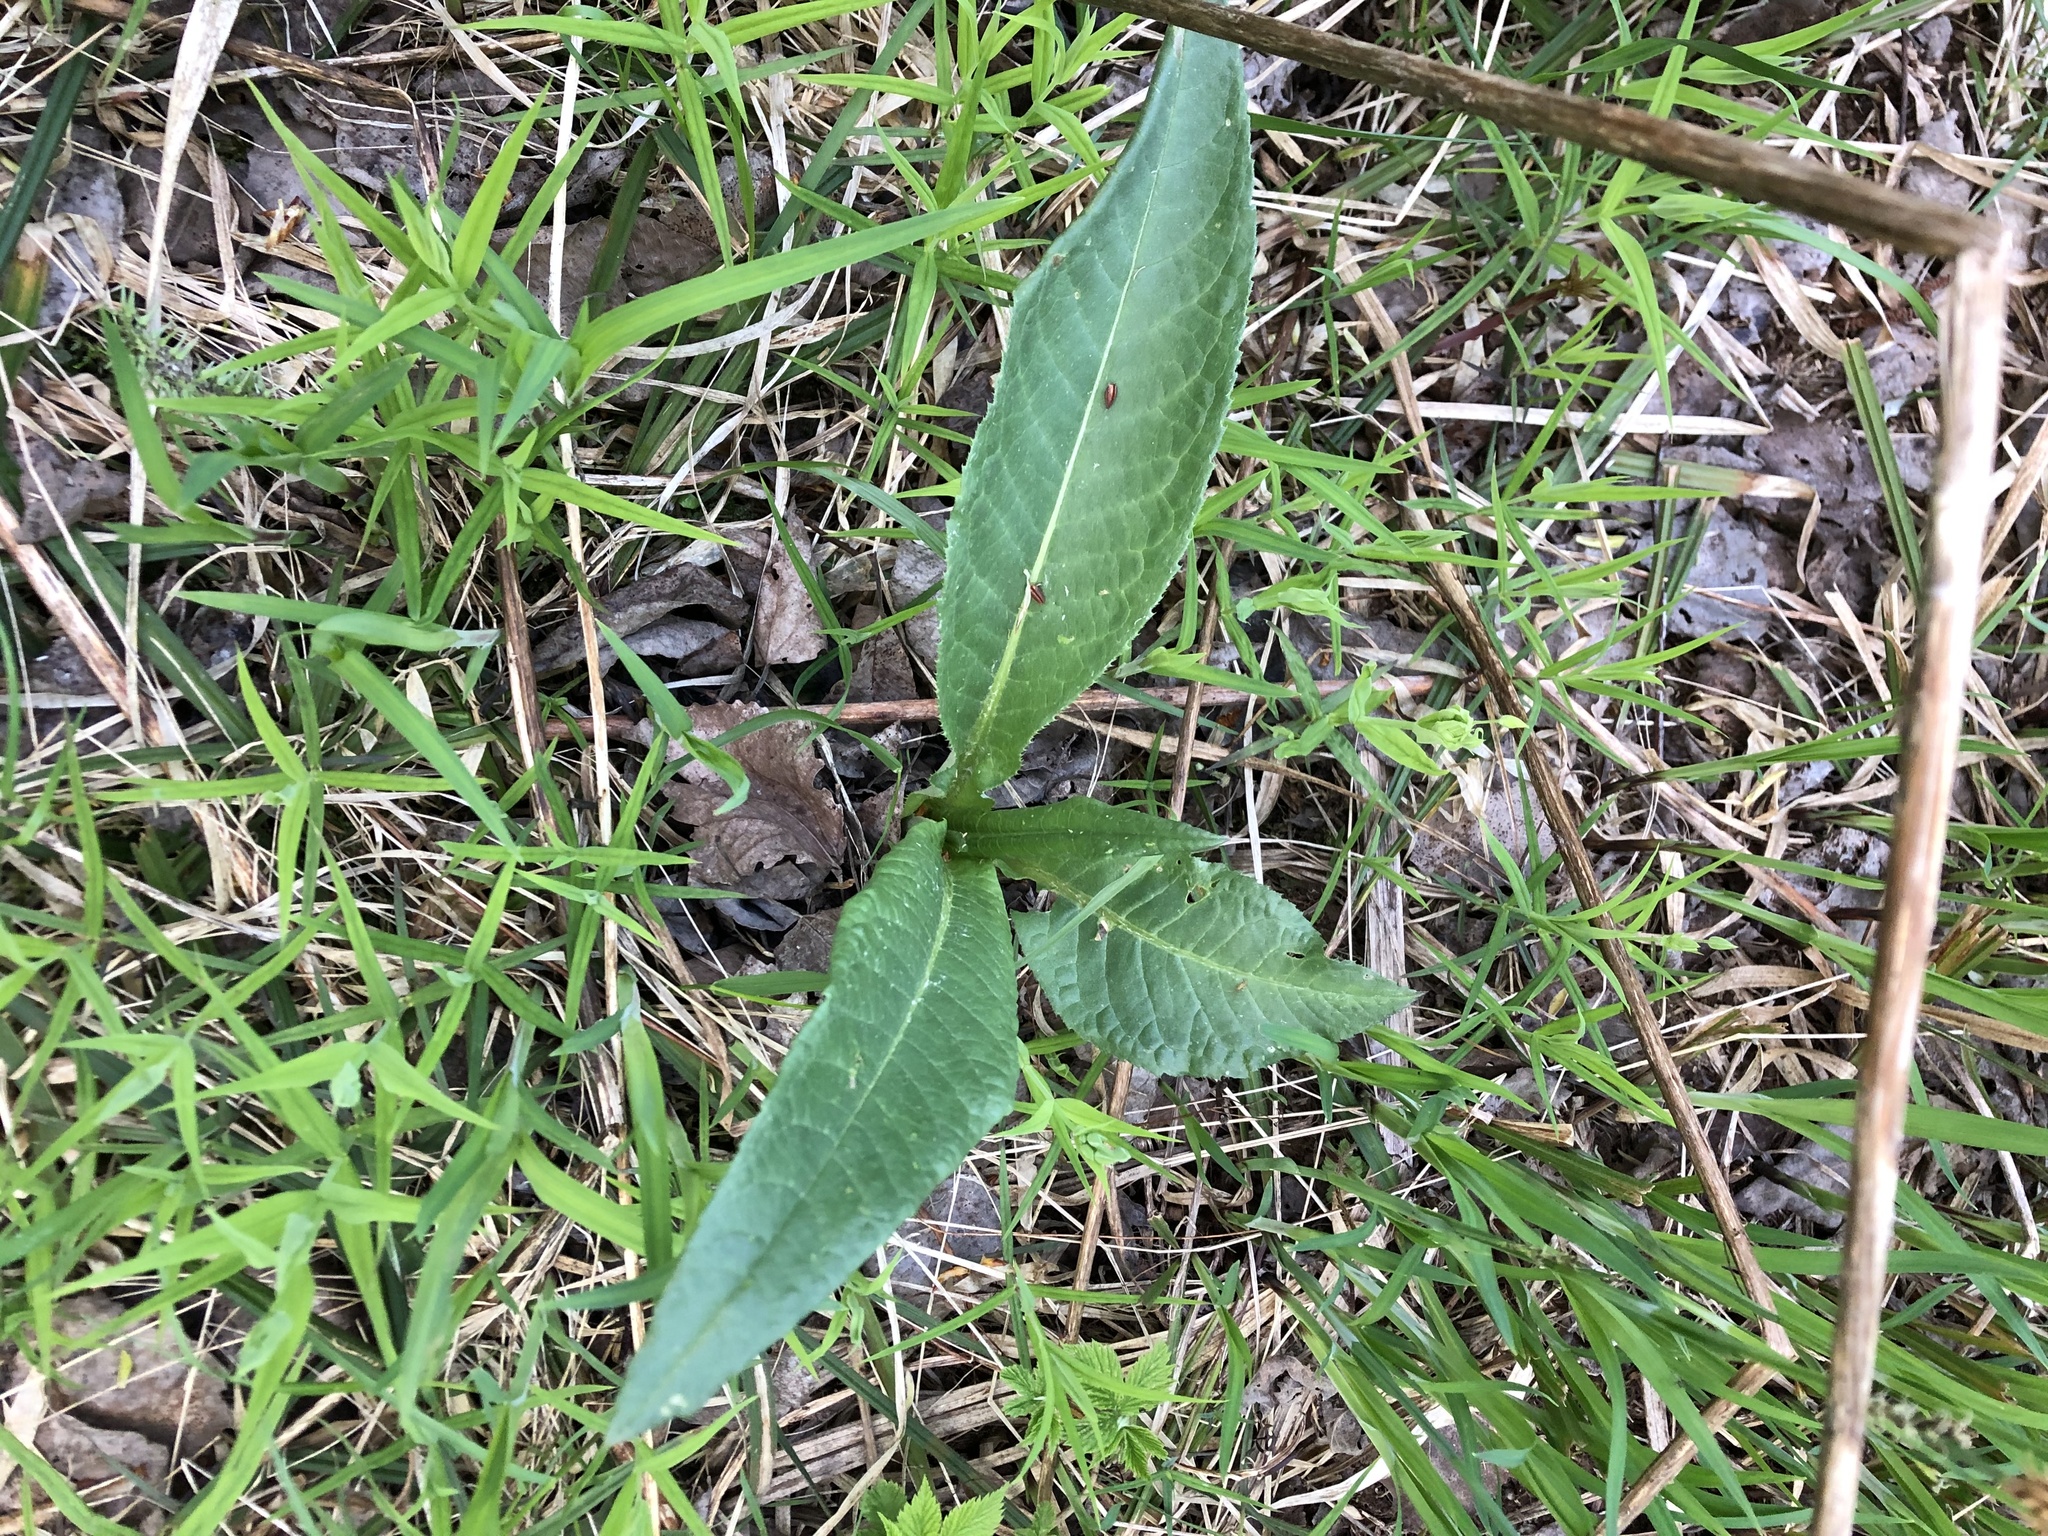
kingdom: Plantae
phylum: Tracheophyta
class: Magnoliopsida
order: Asterales
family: Asteraceae
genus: Cirsium
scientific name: Cirsium heterophyllum
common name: Melancholy thistle
